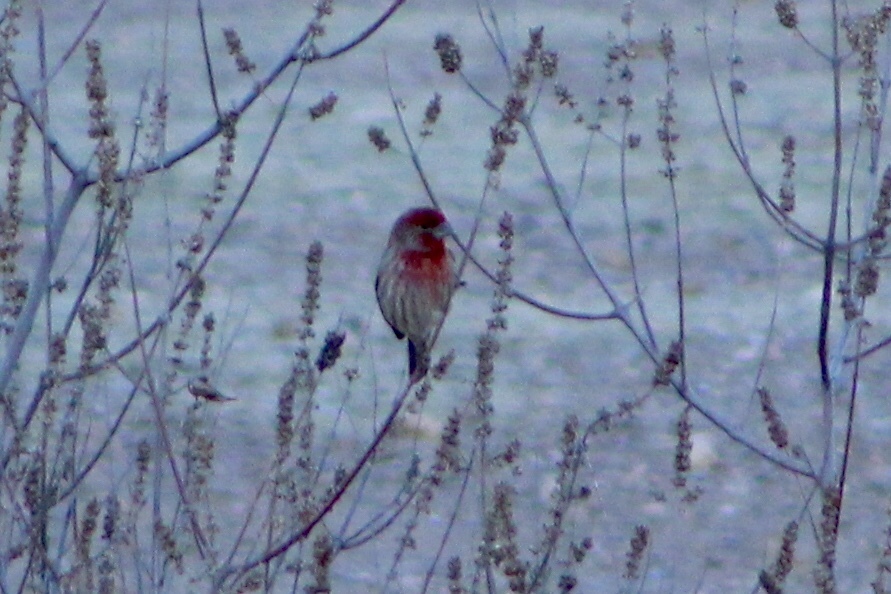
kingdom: Animalia
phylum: Chordata
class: Aves
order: Passeriformes
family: Fringillidae
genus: Haemorhous
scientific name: Haemorhous mexicanus
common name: House finch
